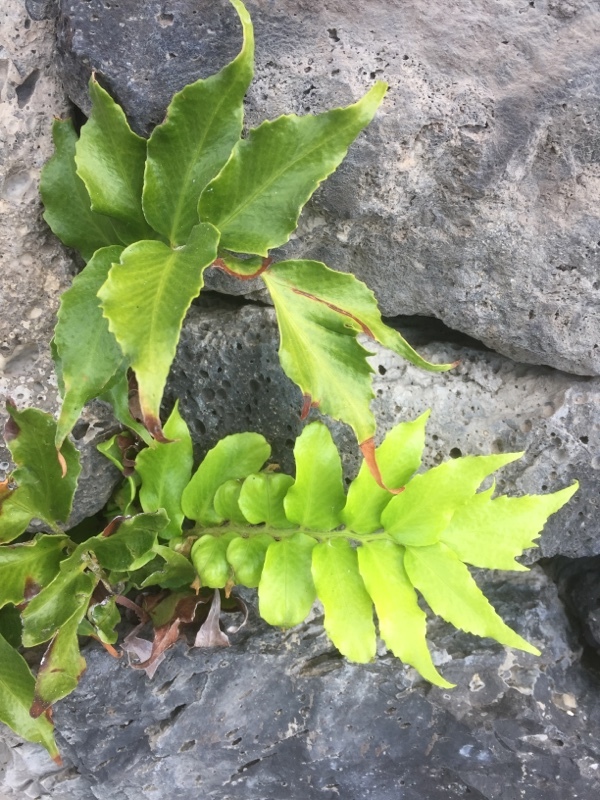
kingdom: Plantae
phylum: Tracheophyta
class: Polypodiopsida
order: Polypodiales
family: Dryopteridaceae
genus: Cyrtomium
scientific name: Cyrtomium falcatum
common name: House holly-fern
